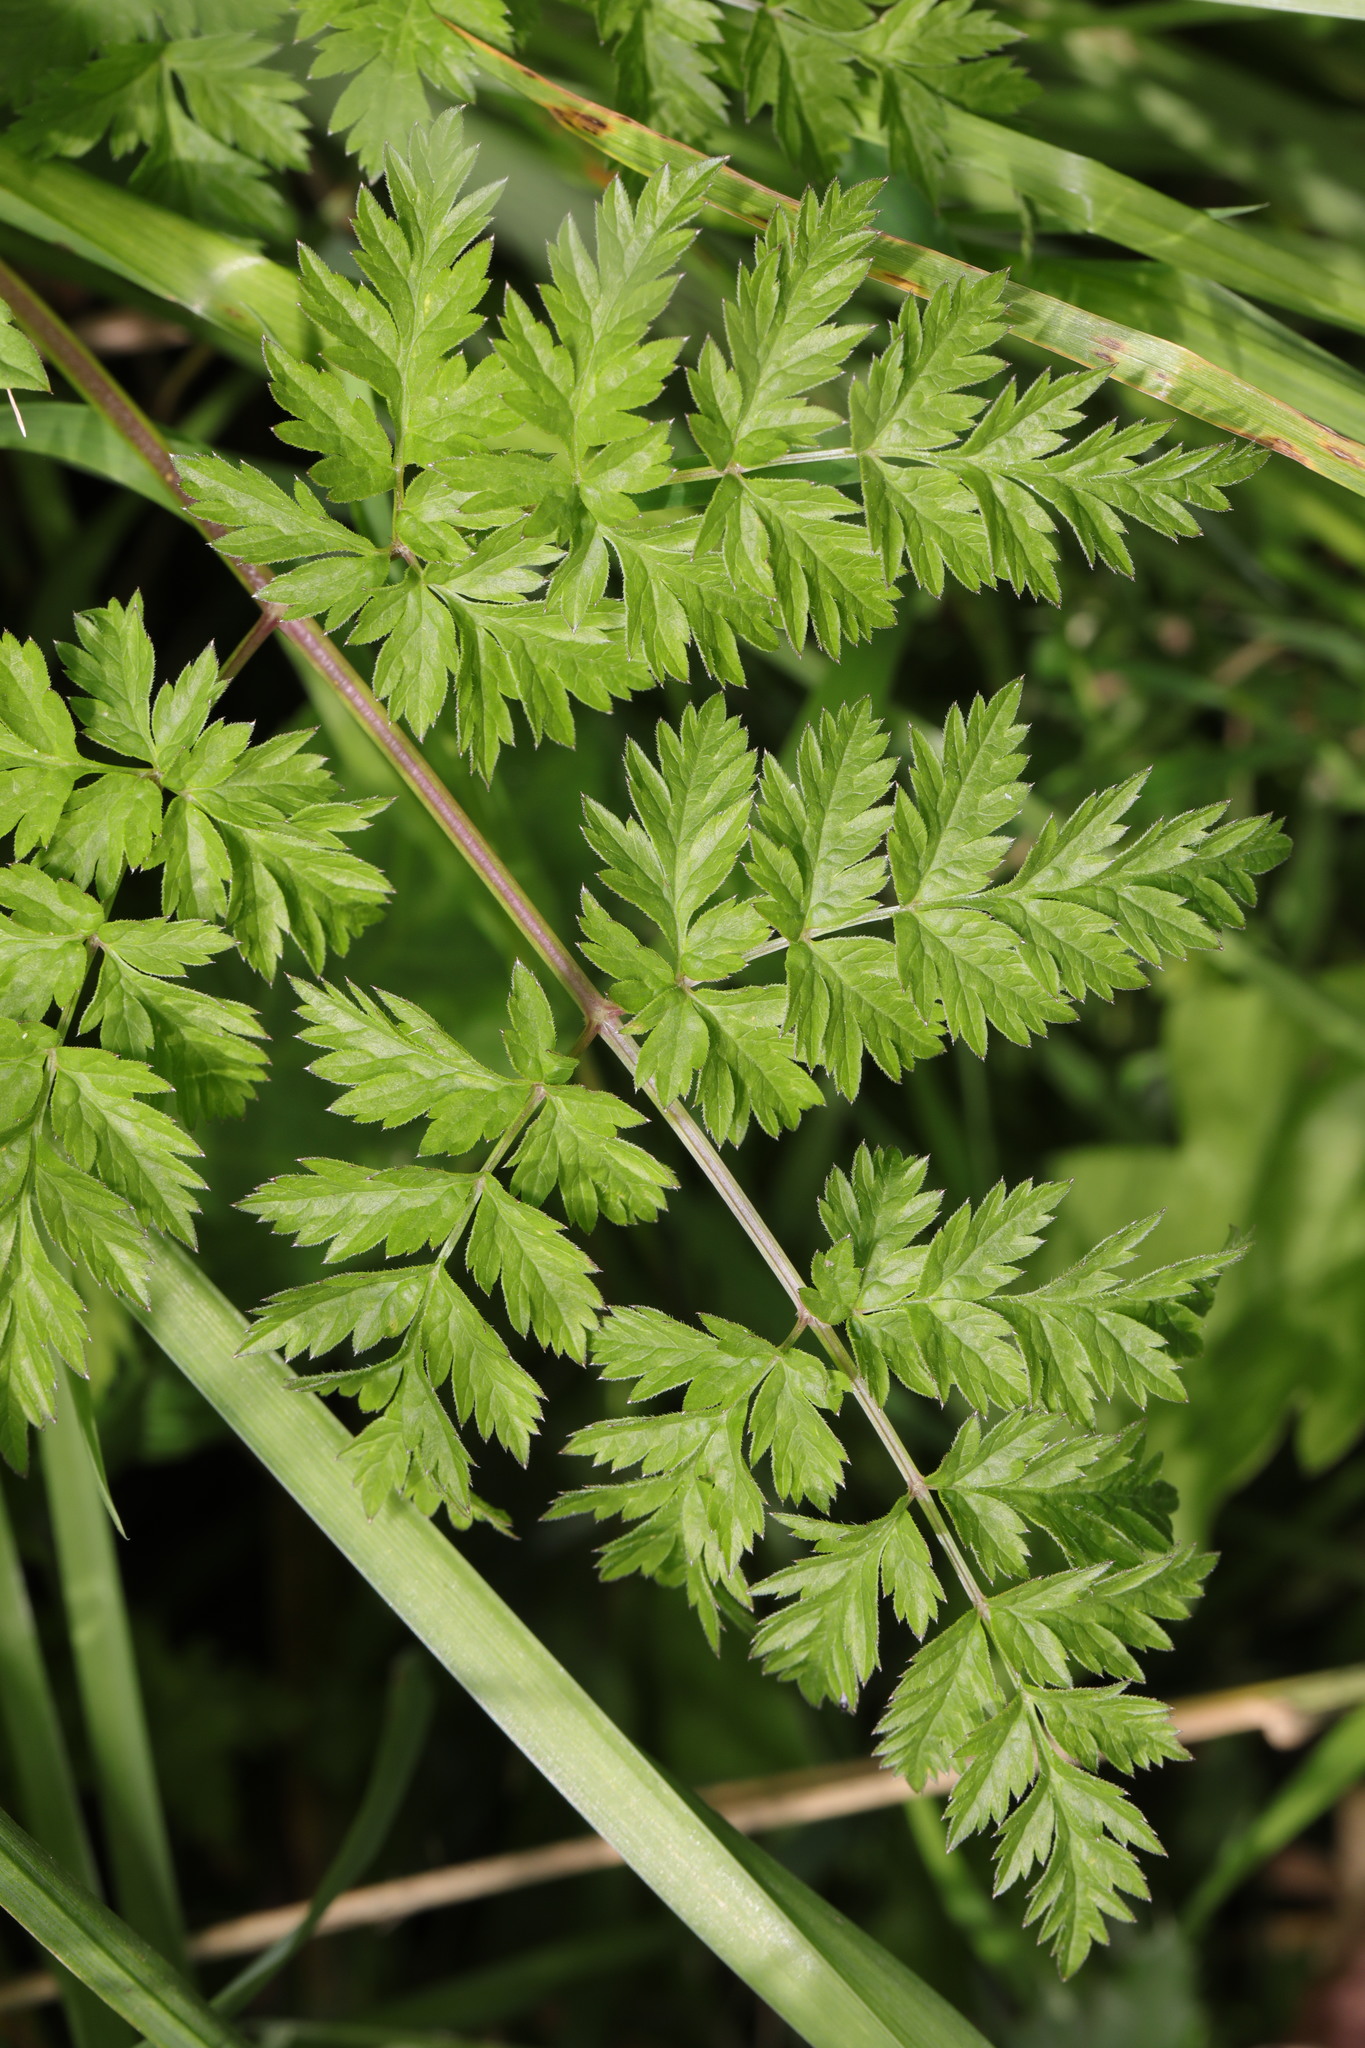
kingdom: Plantae
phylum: Tracheophyta
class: Magnoliopsida
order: Apiales
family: Apiaceae
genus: Anthriscus
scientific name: Anthriscus sylvestris
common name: Cow parsley
